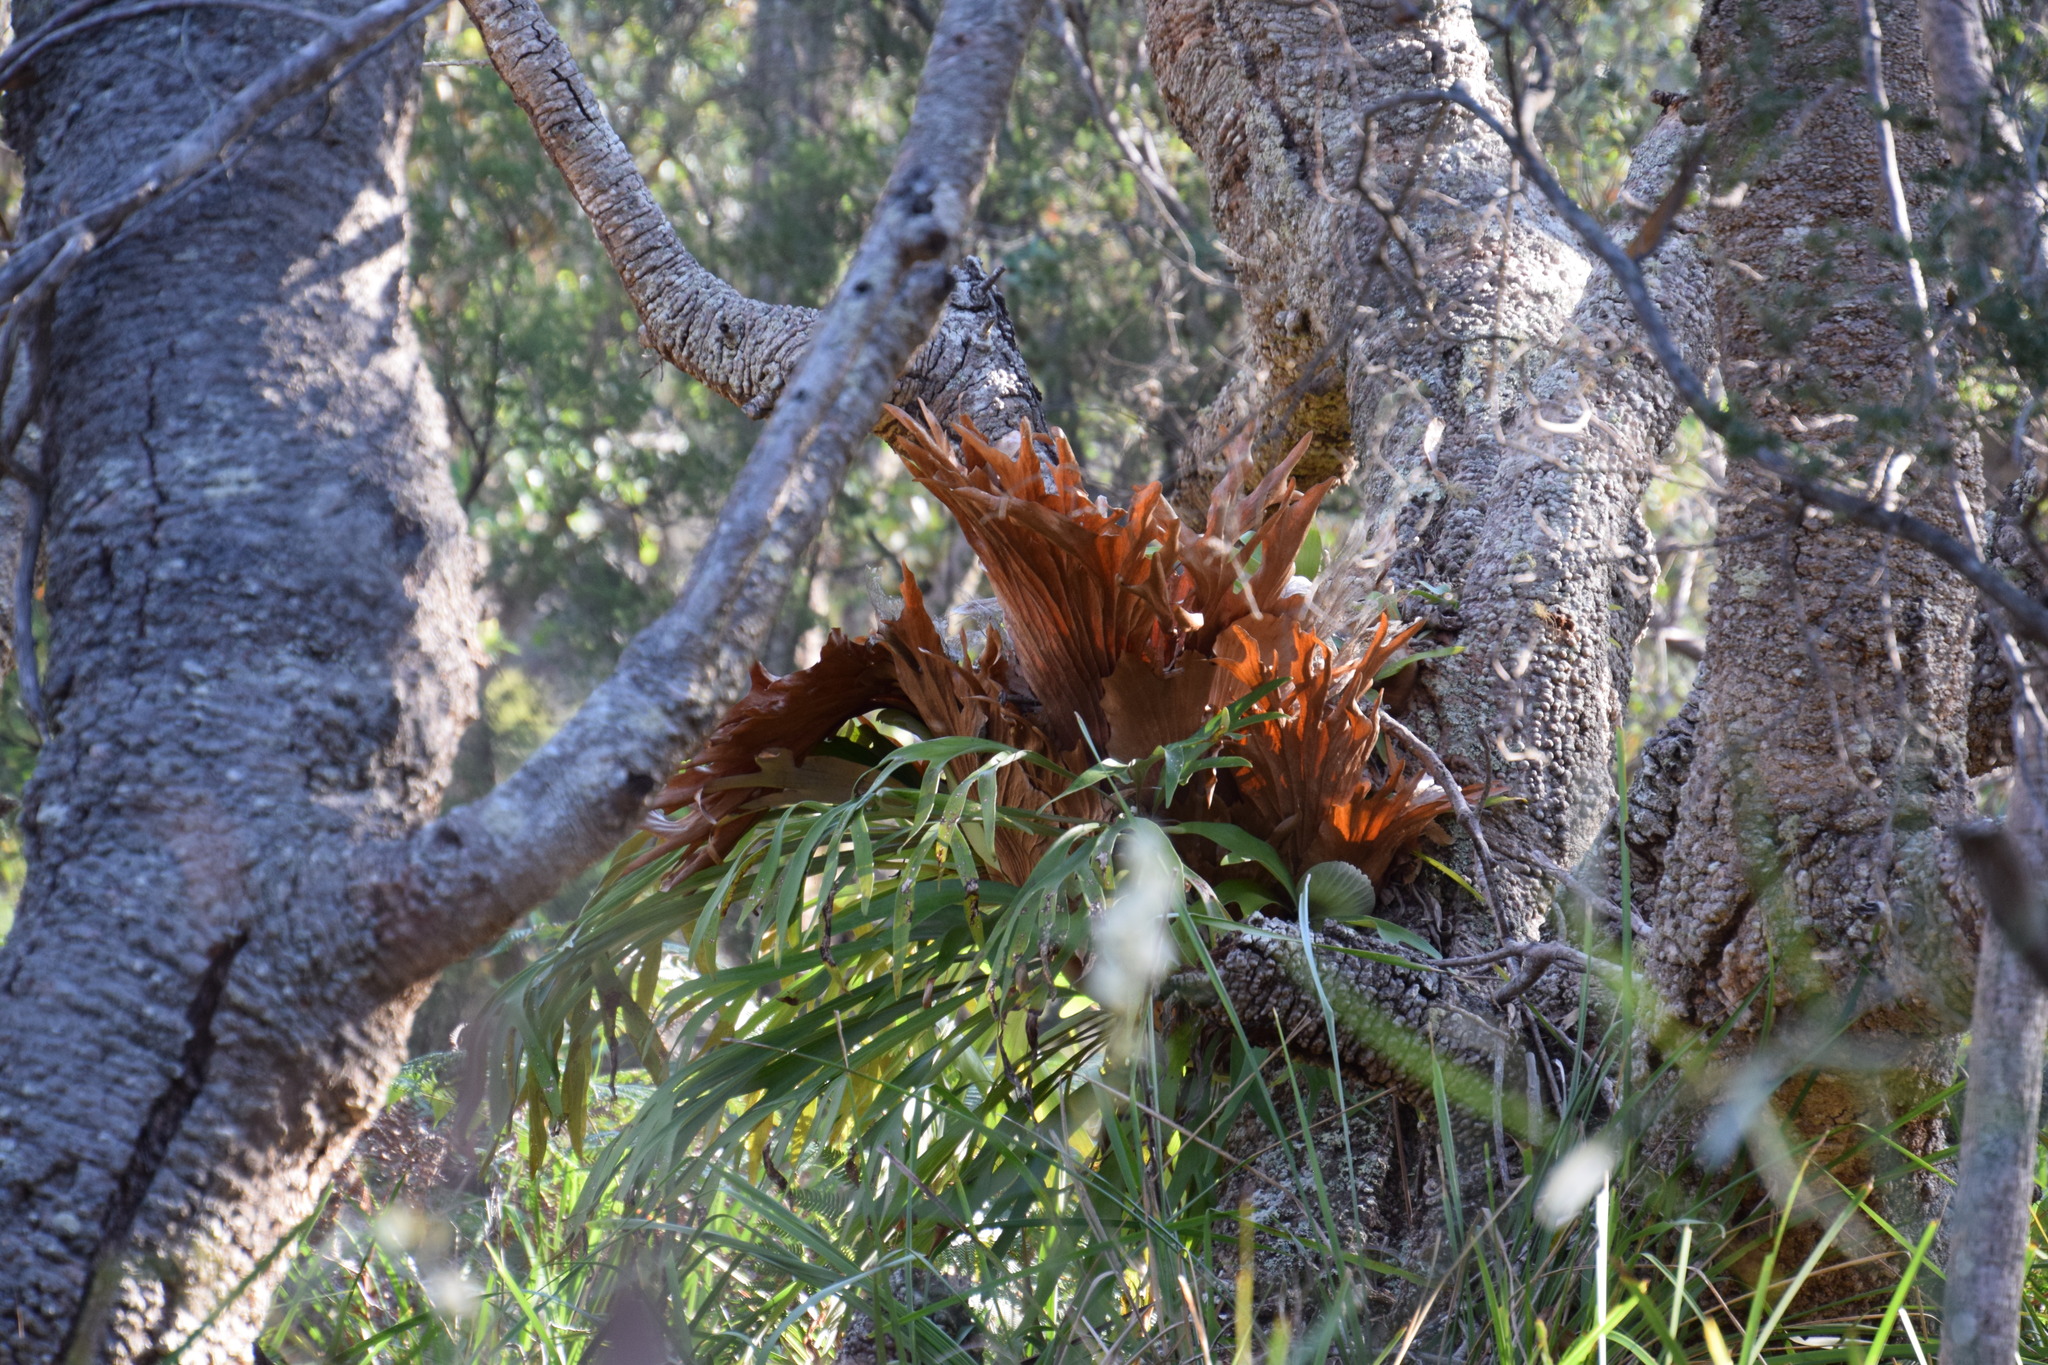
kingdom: Plantae
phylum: Tracheophyta
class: Polypodiopsida
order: Polypodiales
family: Polypodiaceae
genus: Platycerium
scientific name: Platycerium bifurcatum
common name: Elkhorn fern
